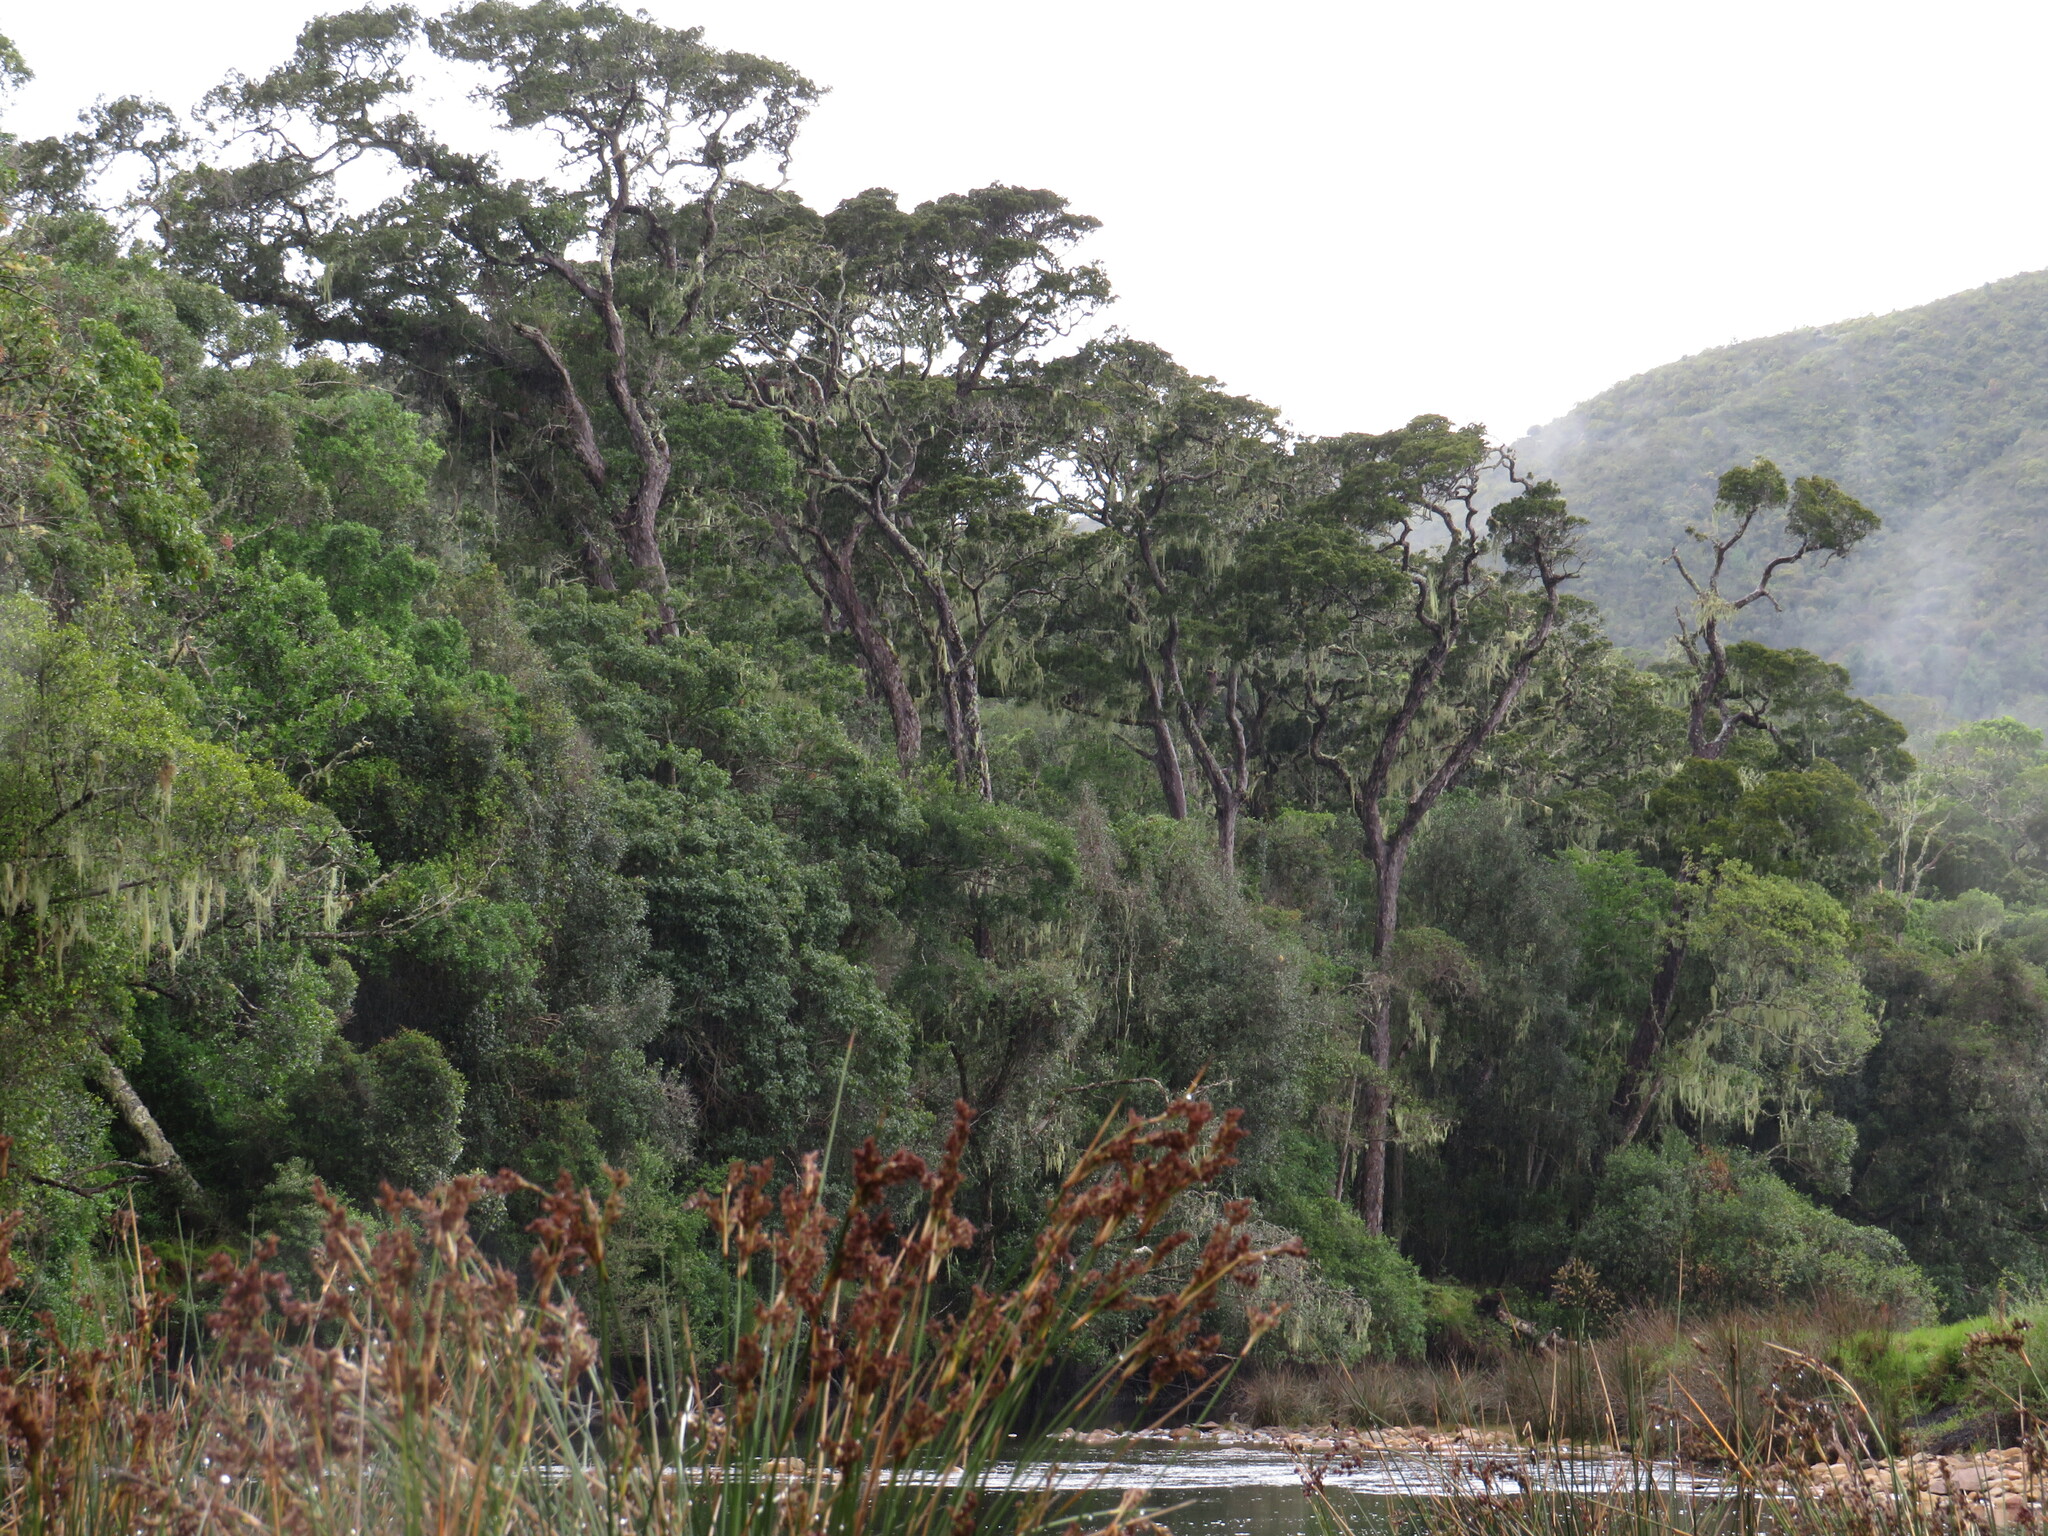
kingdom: Plantae
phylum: Tracheophyta
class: Pinopsida
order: Pinales
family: Podocarpaceae
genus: Afrocarpus
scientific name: Afrocarpus falcatus
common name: Bastard yellowwood
